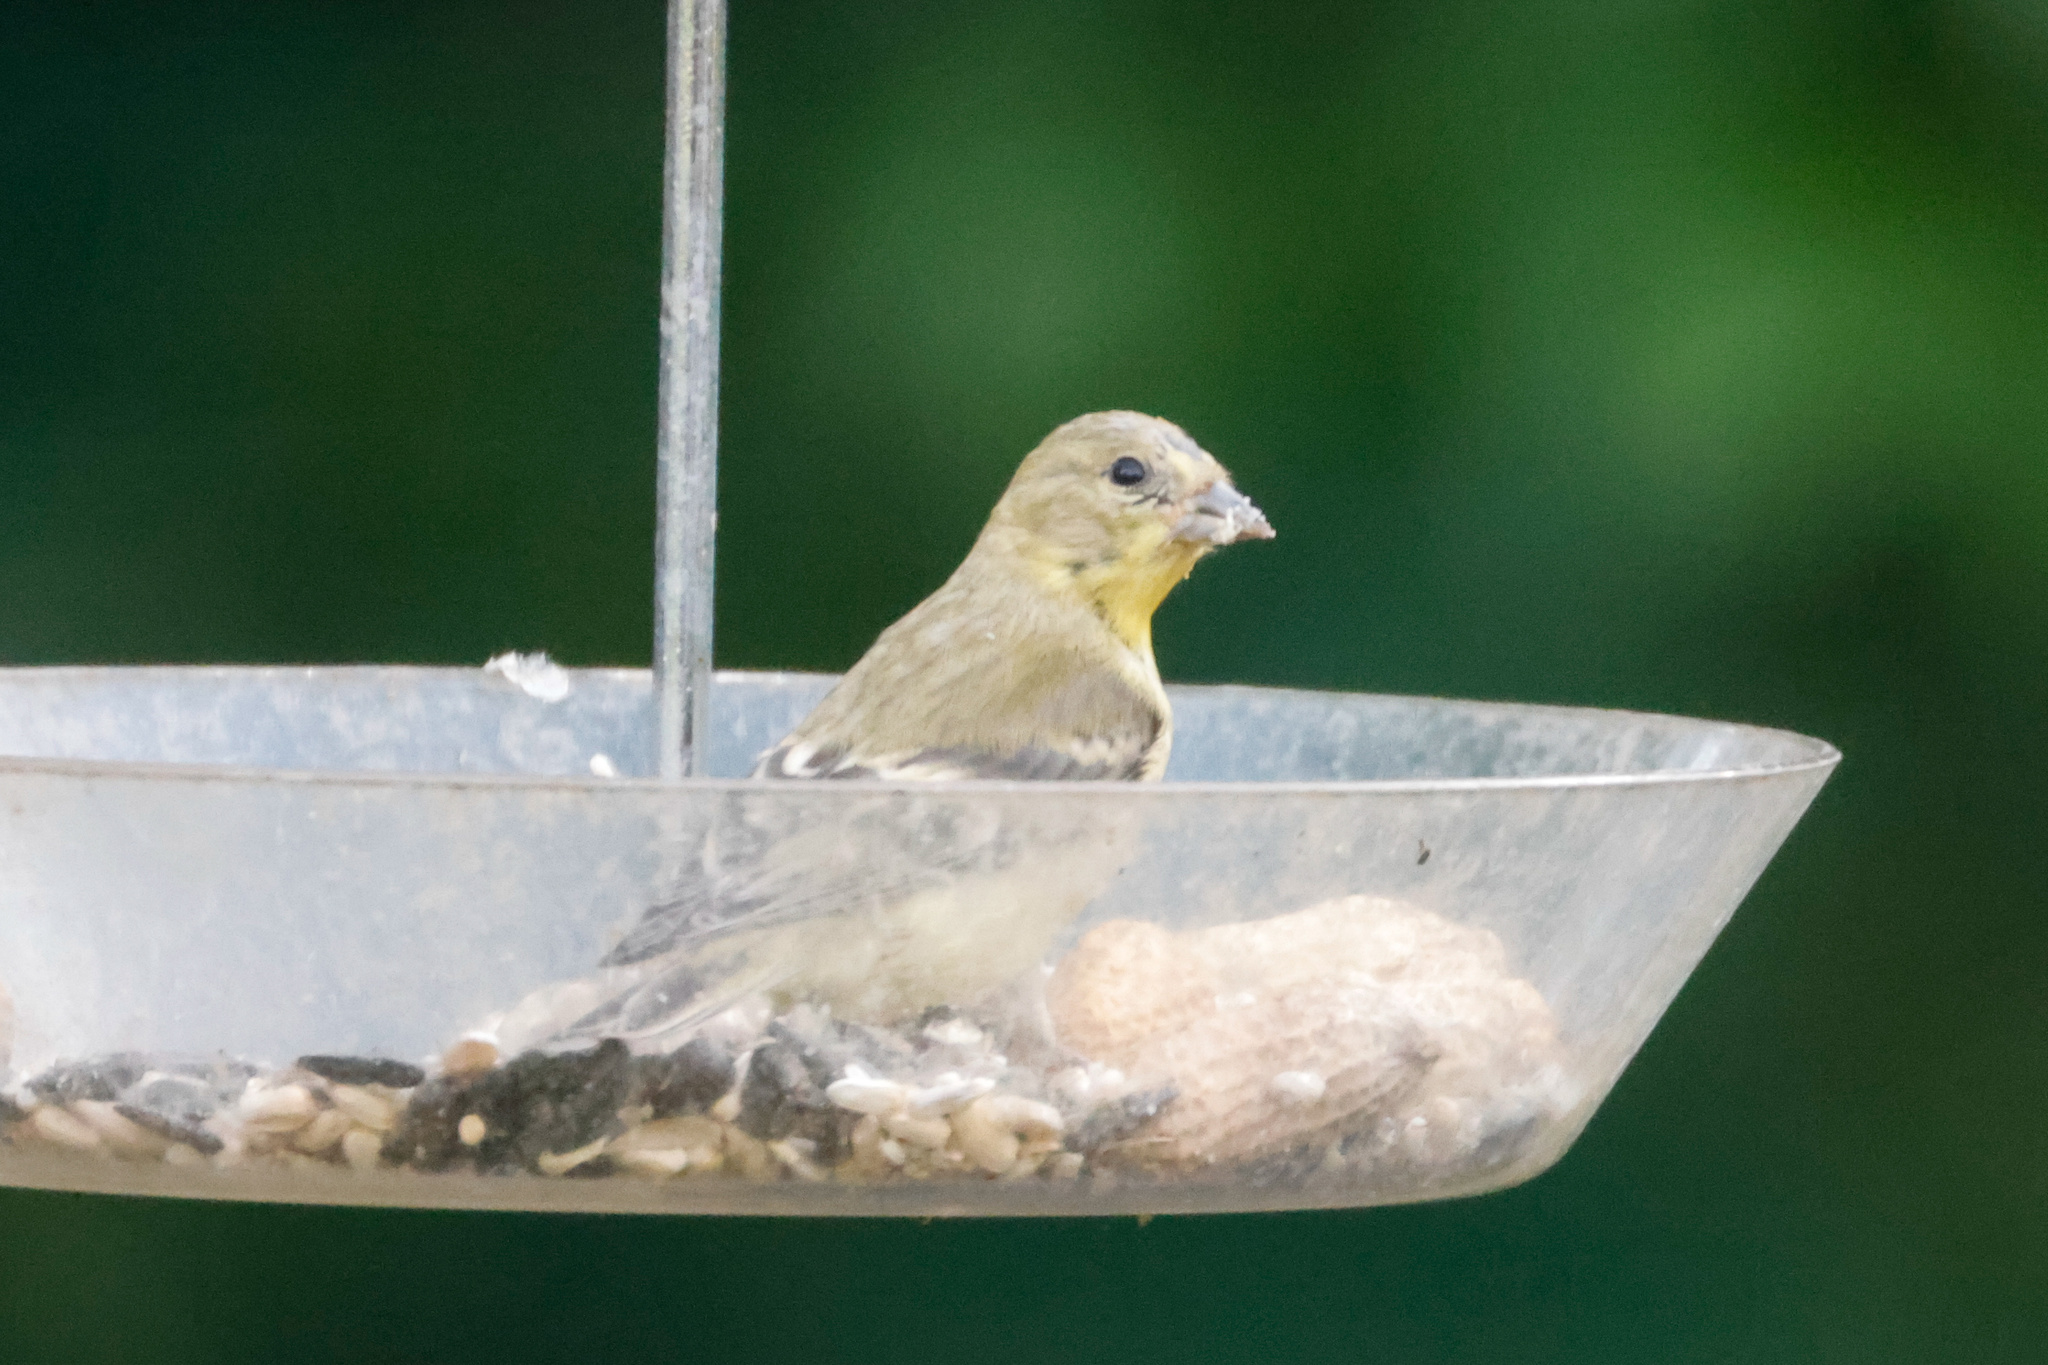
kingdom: Animalia
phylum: Chordata
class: Aves
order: Passeriformes
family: Fringillidae
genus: Spinus
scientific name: Spinus psaltria
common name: Lesser goldfinch
